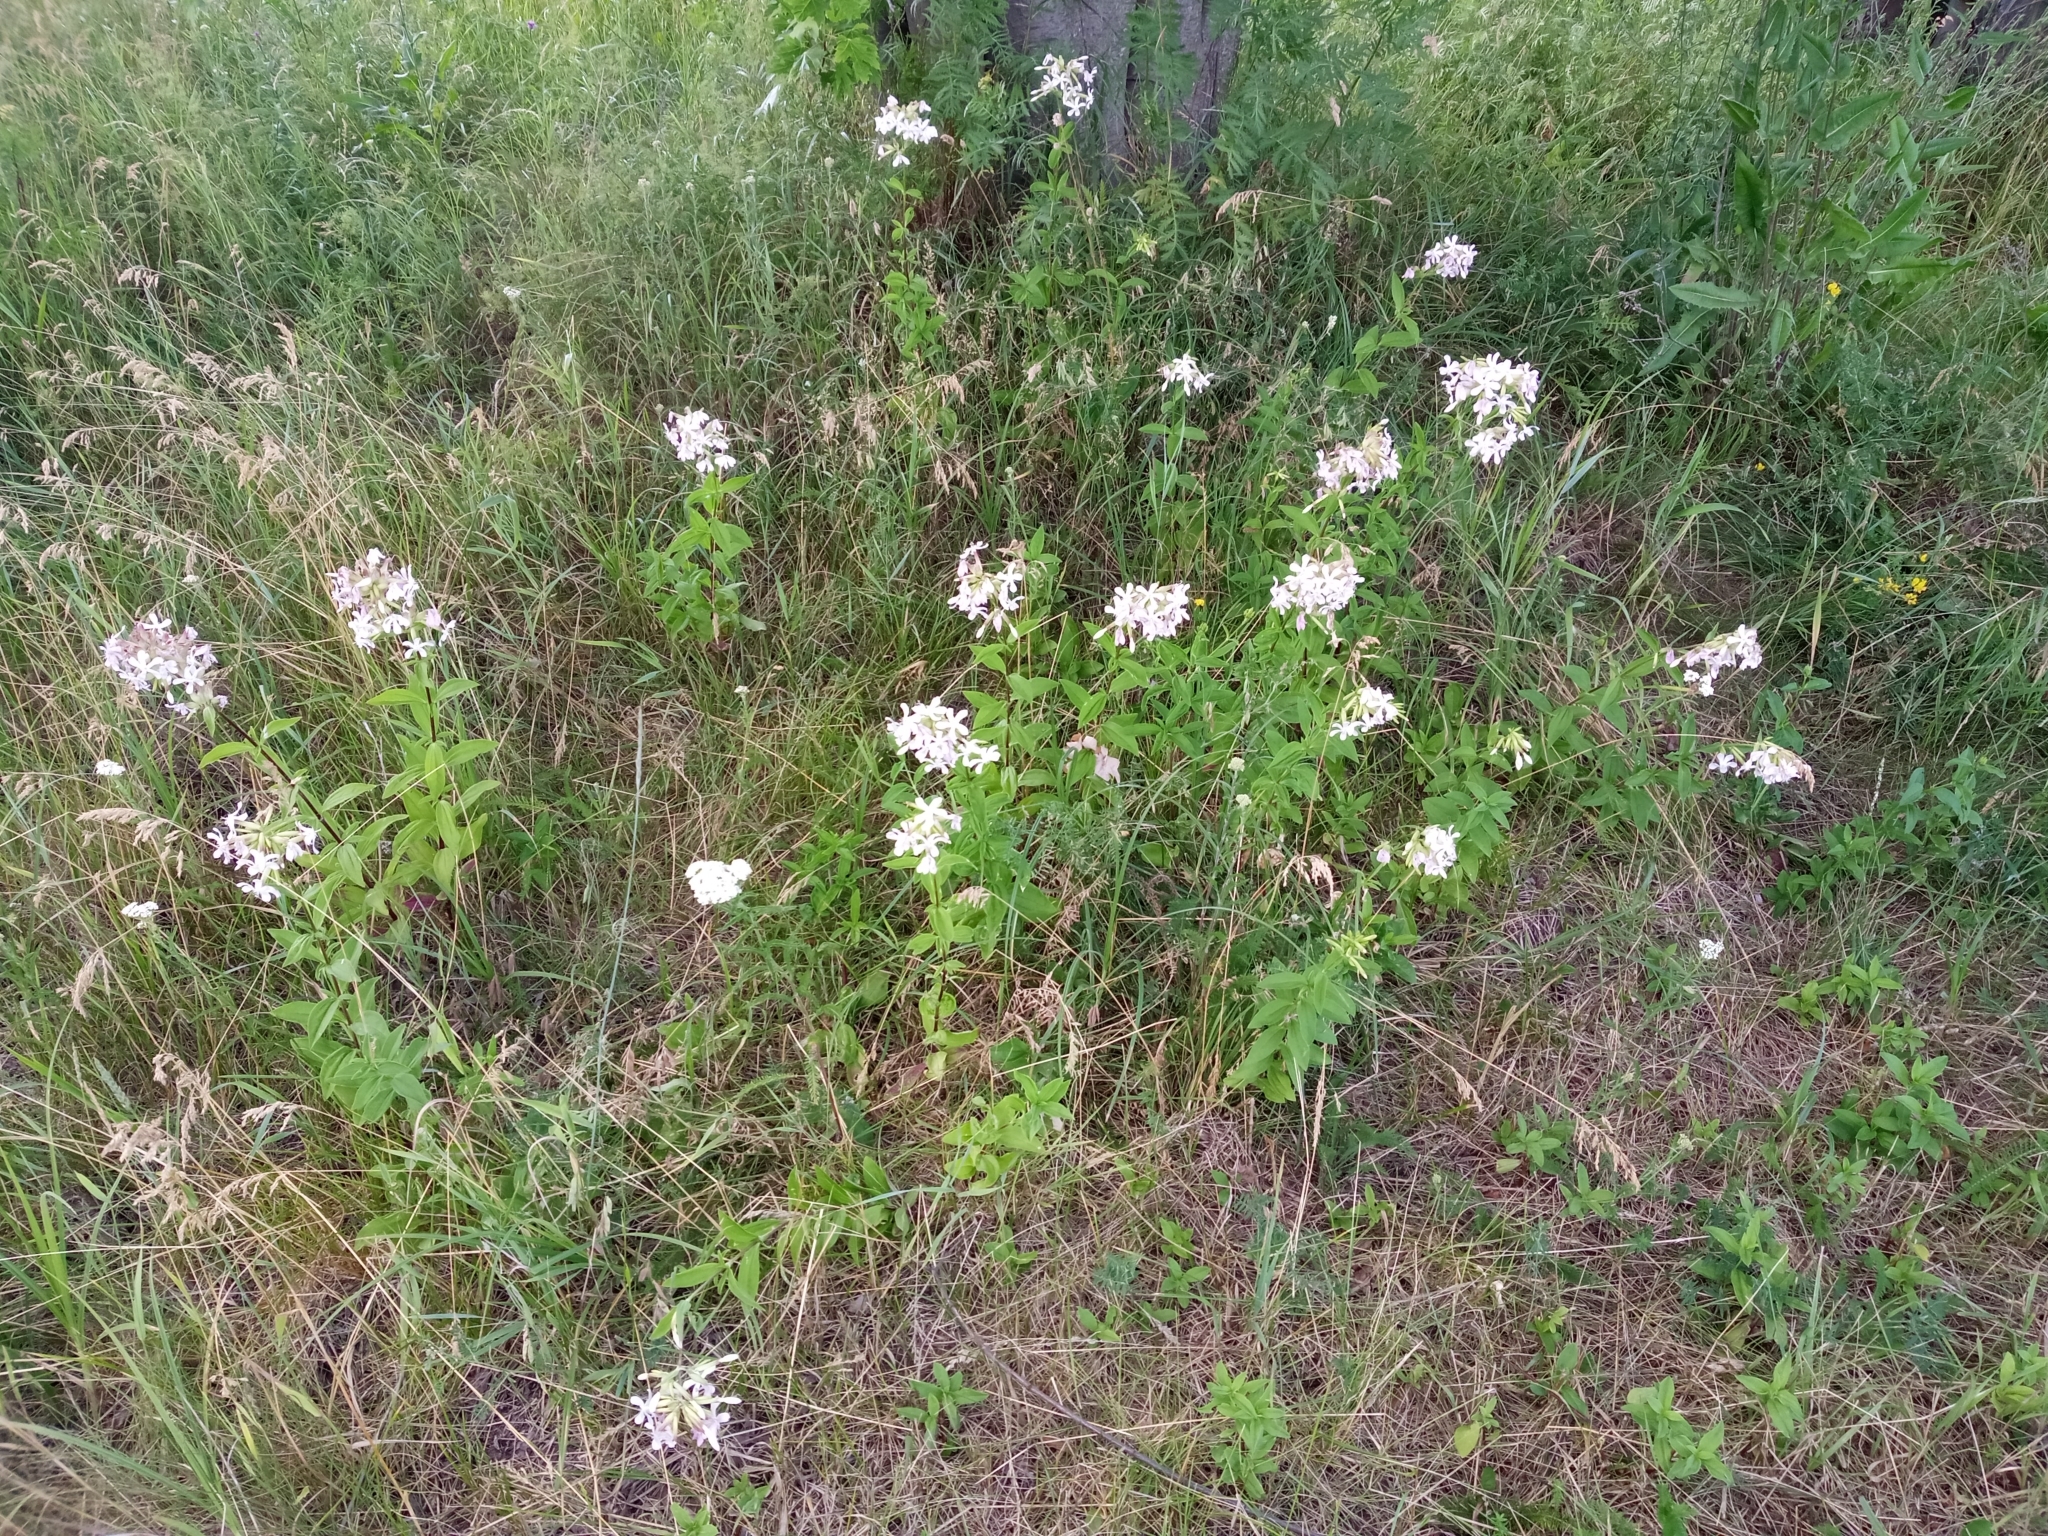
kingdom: Plantae
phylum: Tracheophyta
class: Magnoliopsida
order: Caryophyllales
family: Caryophyllaceae
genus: Saponaria
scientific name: Saponaria officinalis
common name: Soapwort
